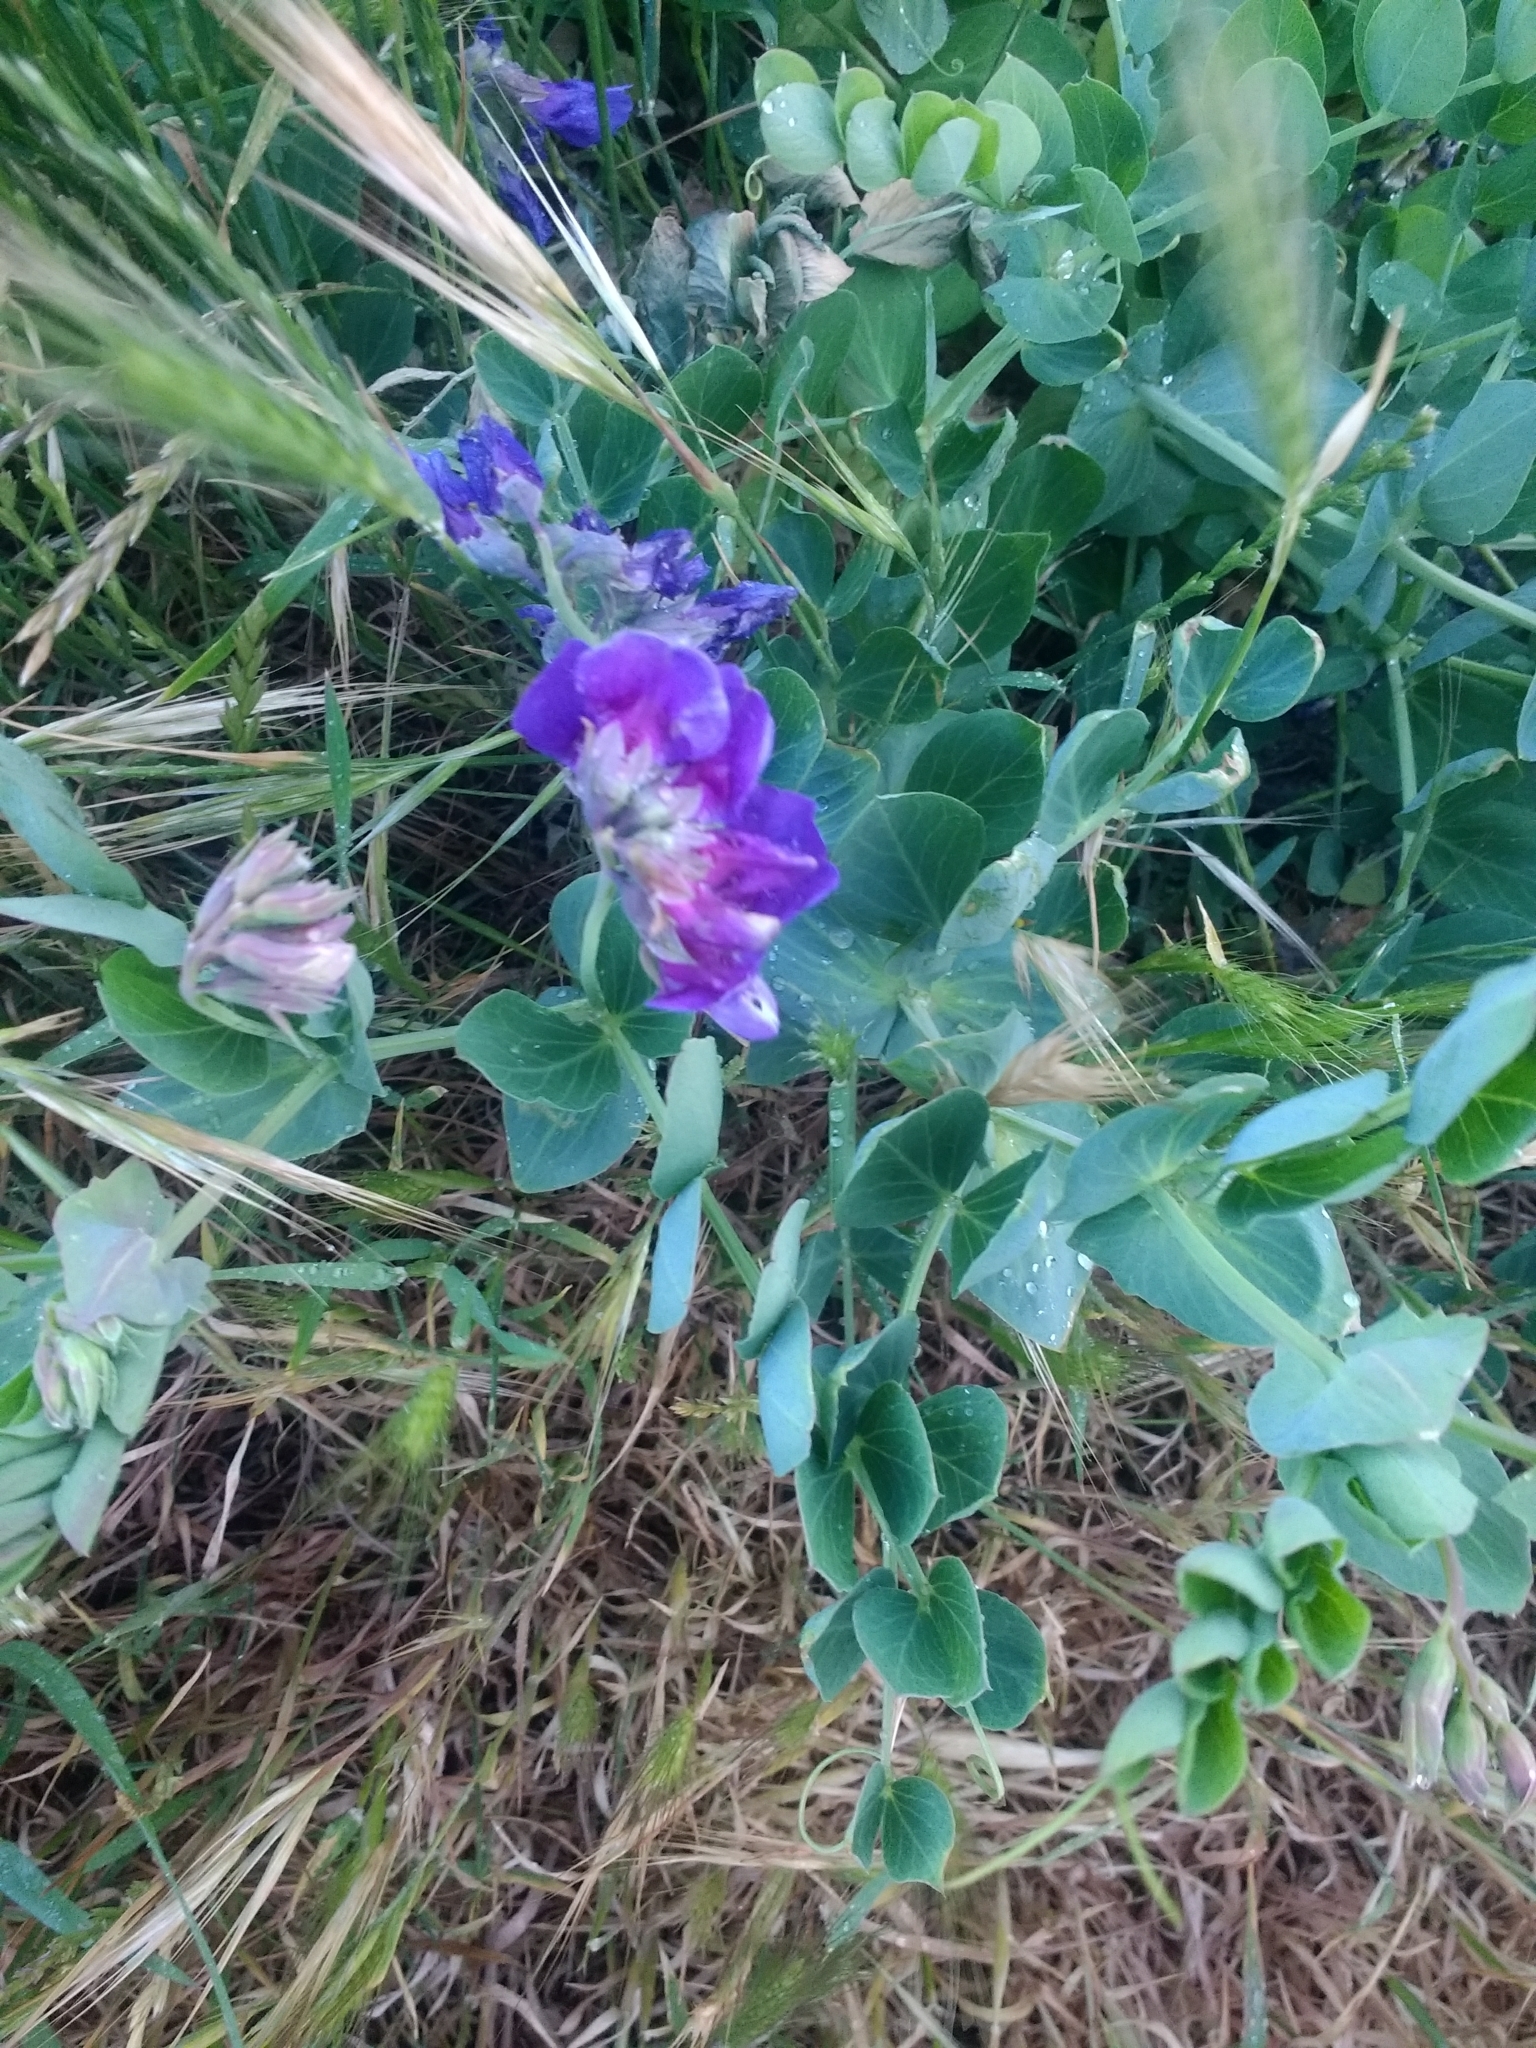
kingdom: Plantae
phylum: Tracheophyta
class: Magnoliopsida
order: Fabales
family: Fabaceae
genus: Lathyrus
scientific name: Lathyrus japonicus
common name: Sea pea
